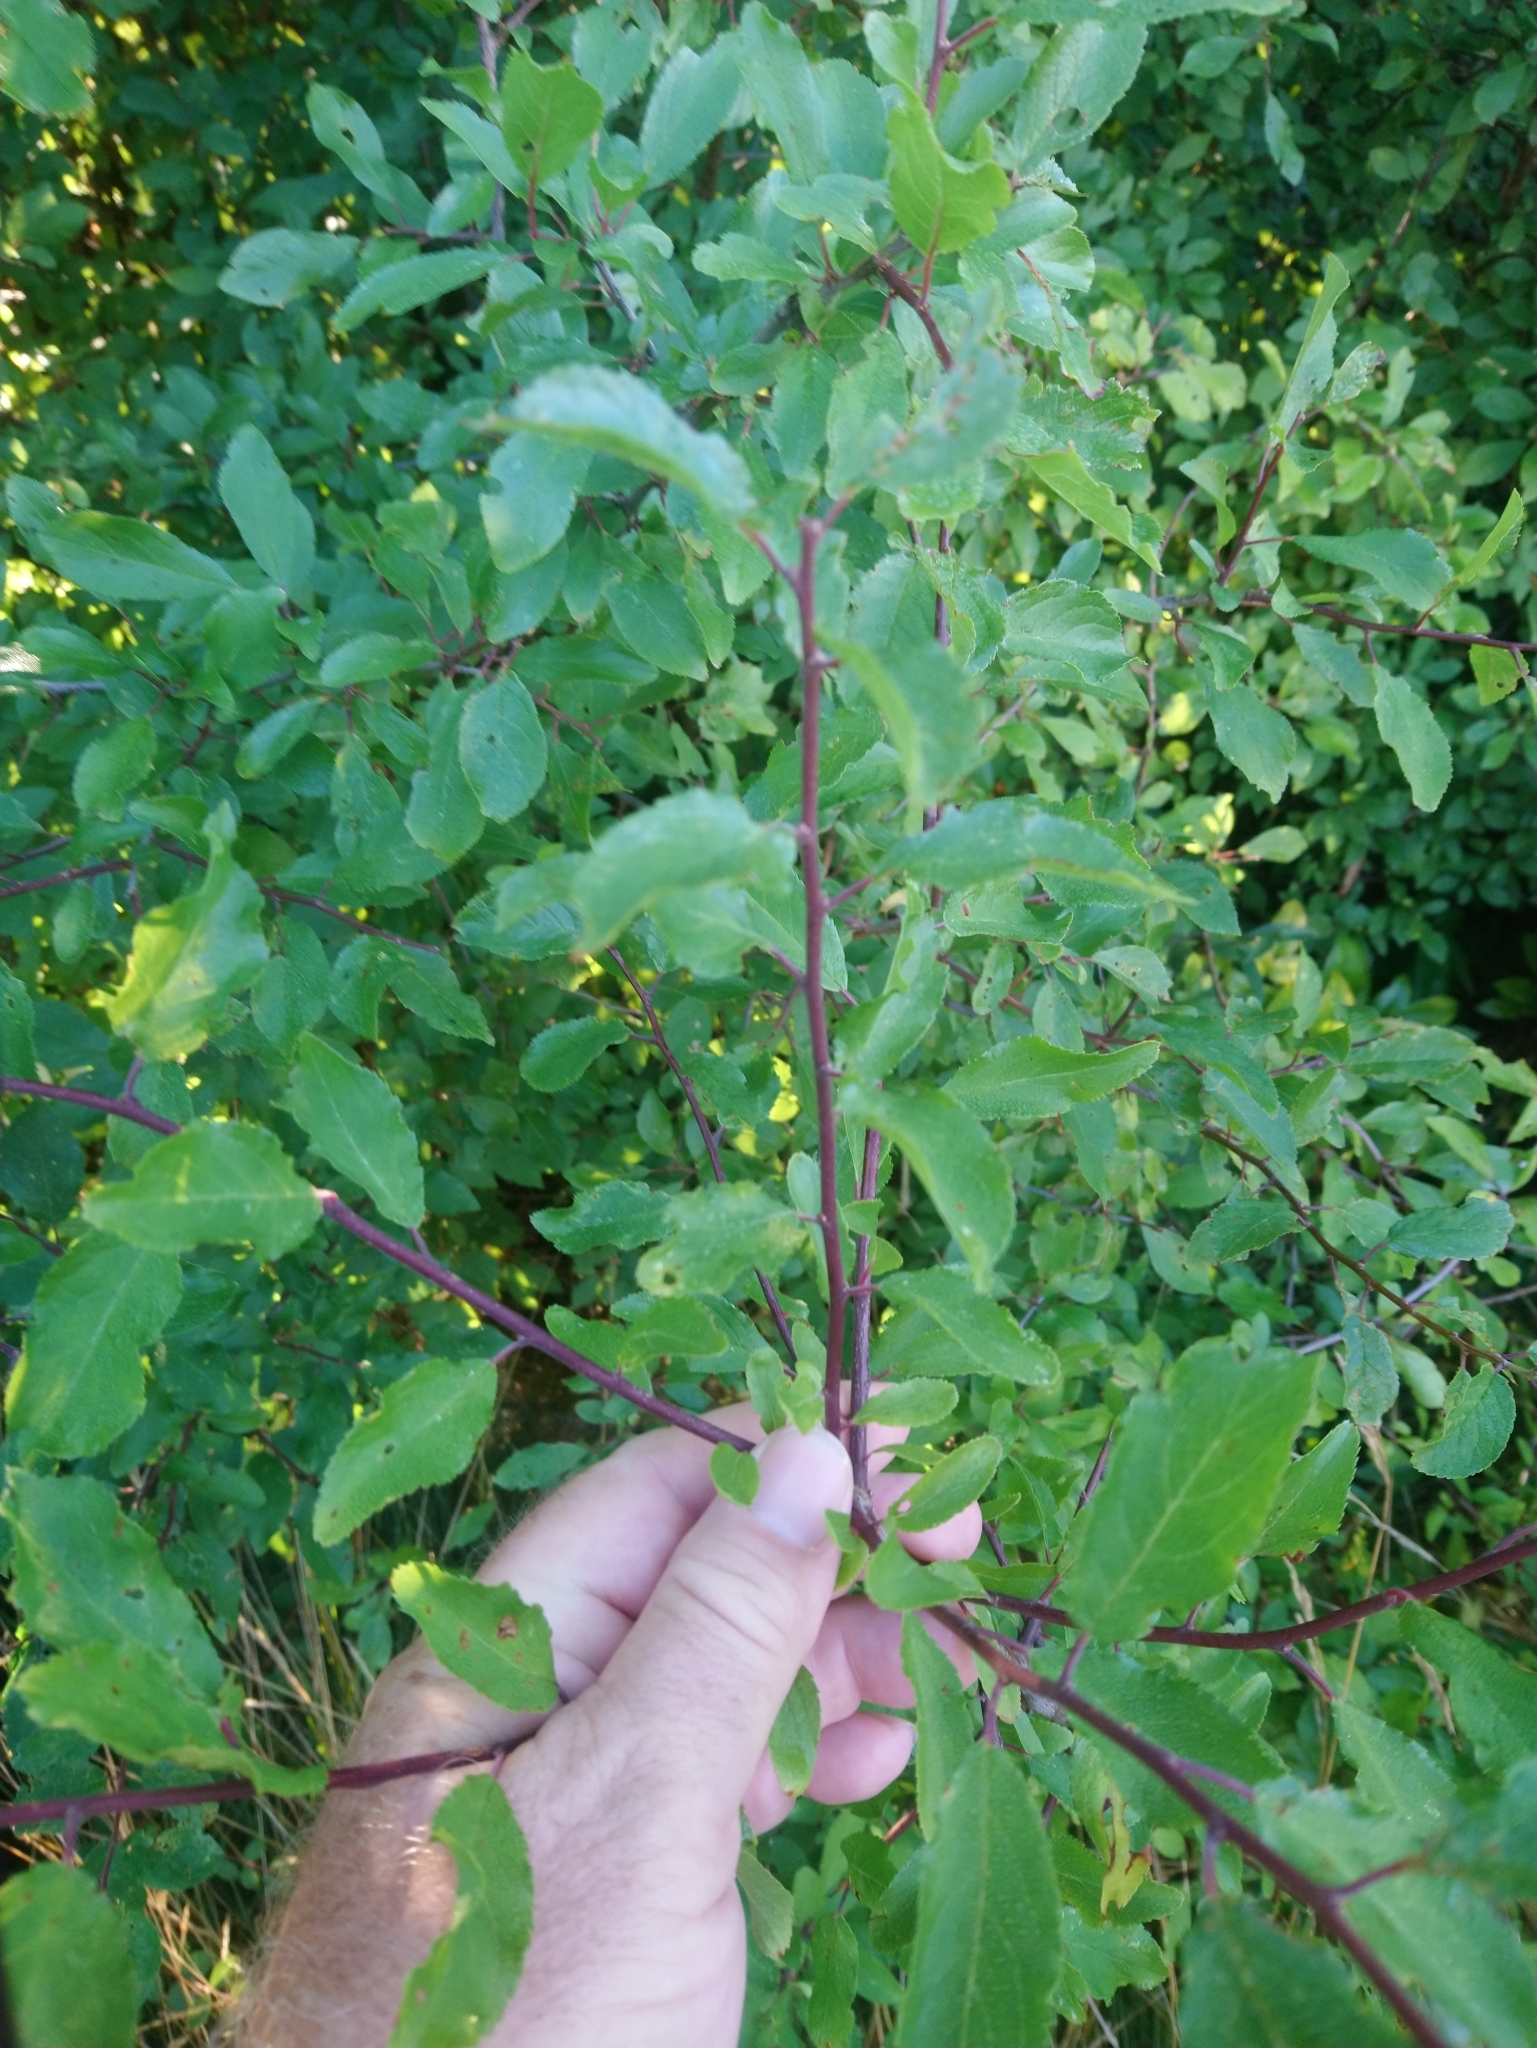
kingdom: Plantae
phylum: Tracheophyta
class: Magnoliopsida
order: Rosales
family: Rosaceae
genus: Prunus
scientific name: Prunus spinosa
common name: Blackthorn
